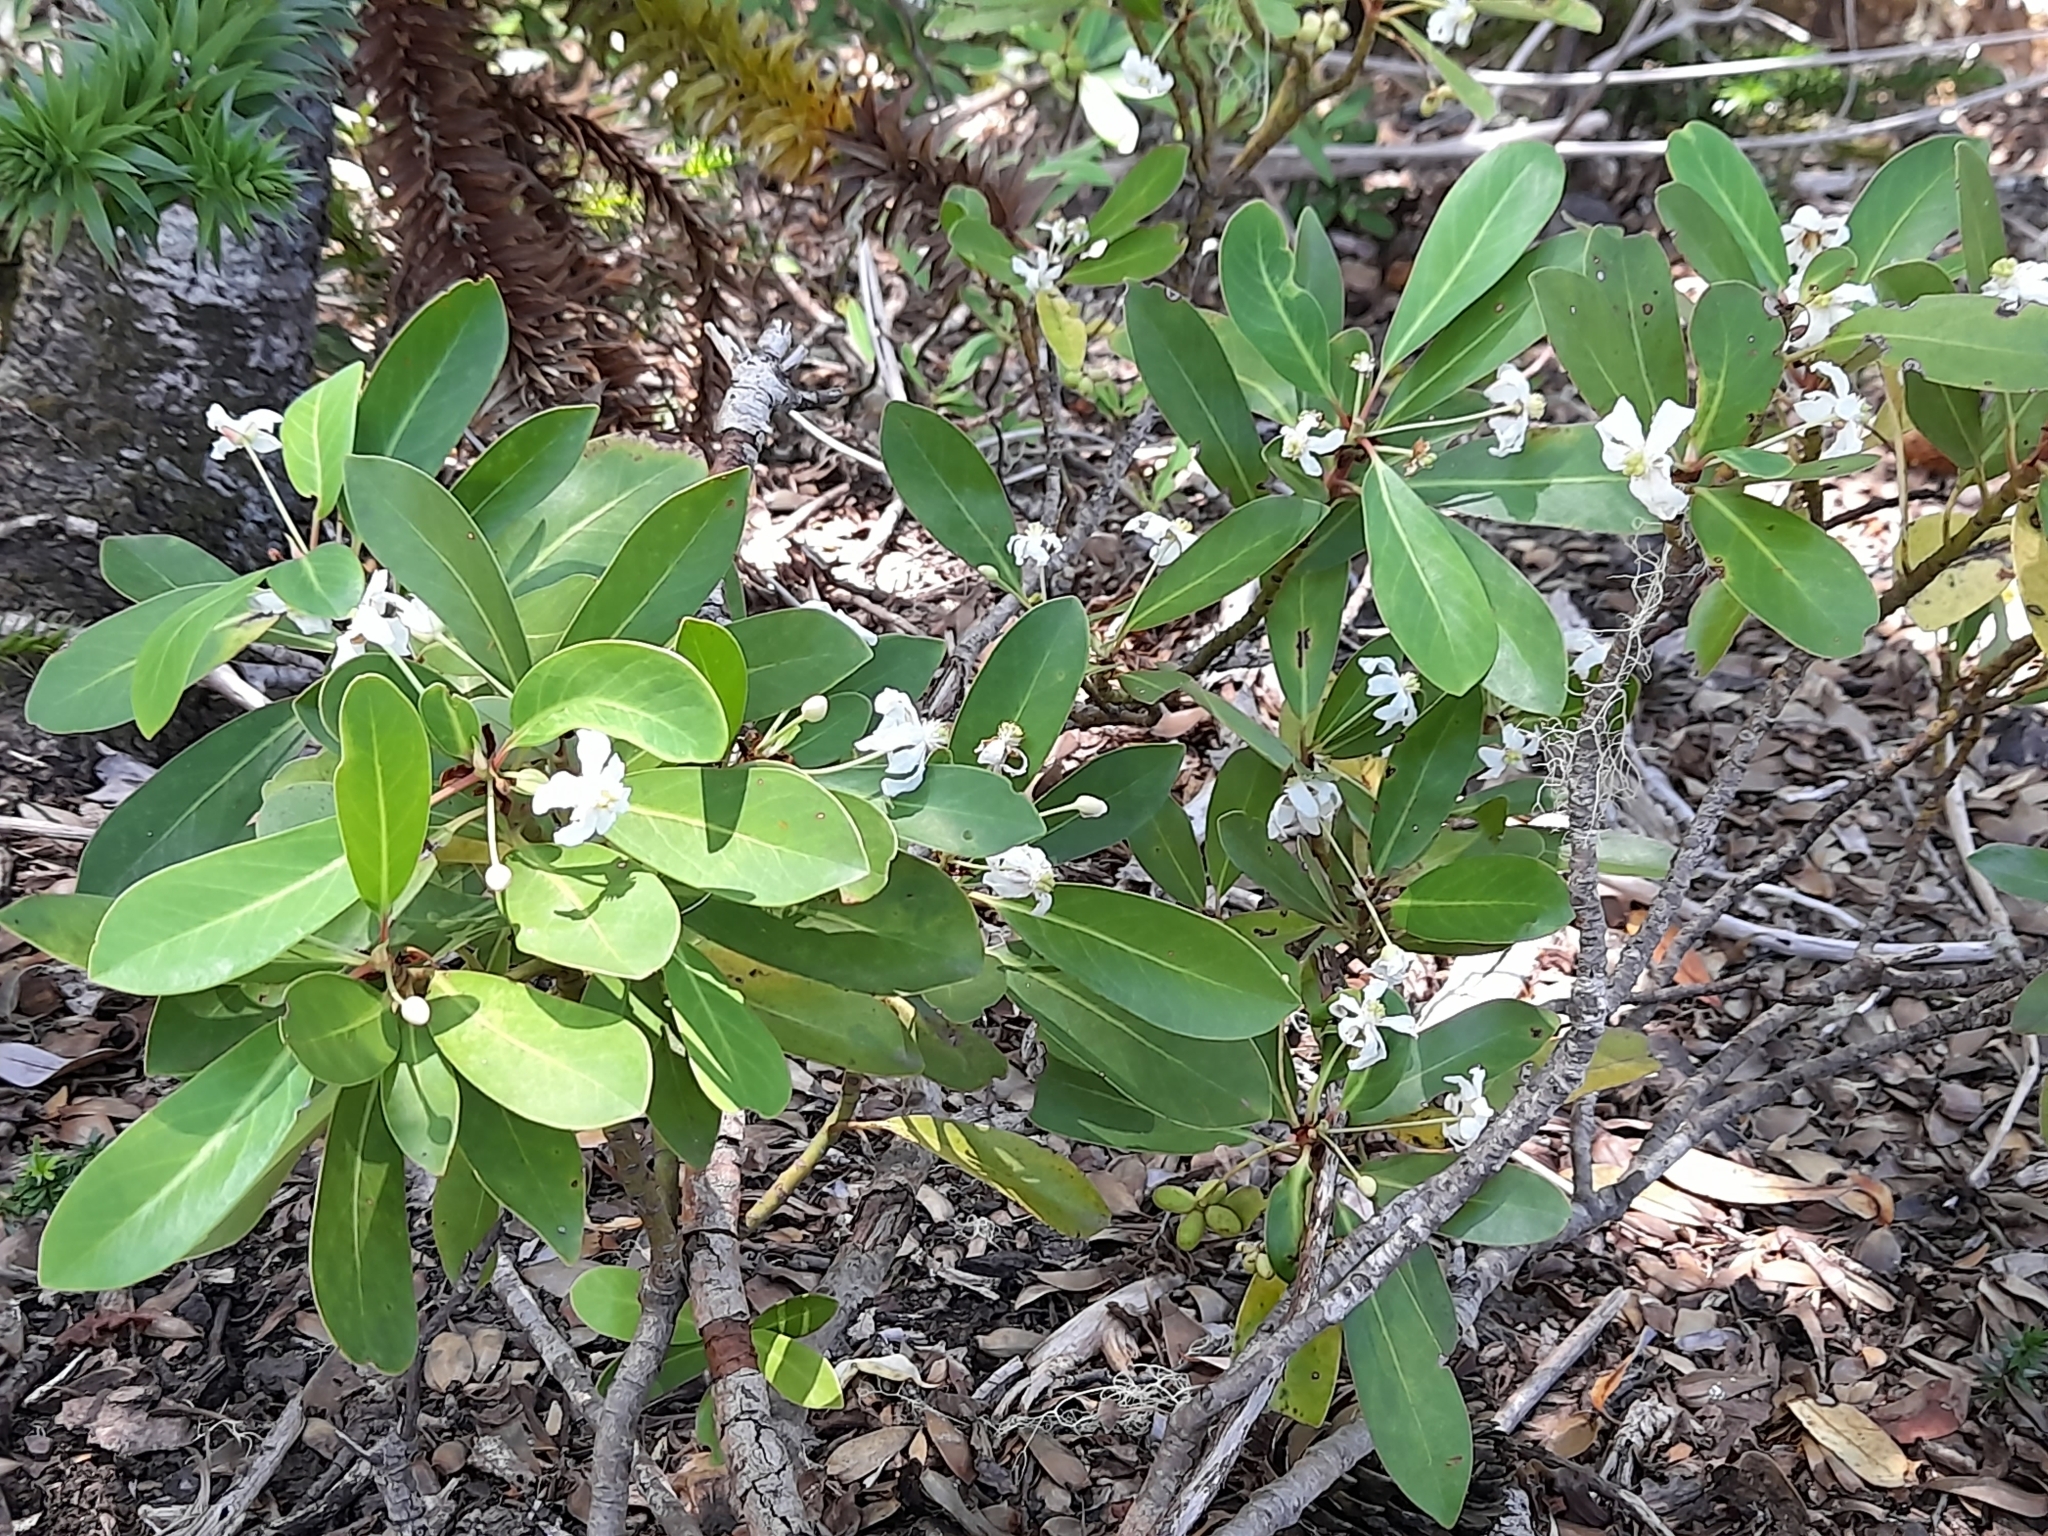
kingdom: Plantae
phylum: Tracheophyta
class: Magnoliopsida
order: Canellales
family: Winteraceae
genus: Drimys
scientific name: Drimys andina
